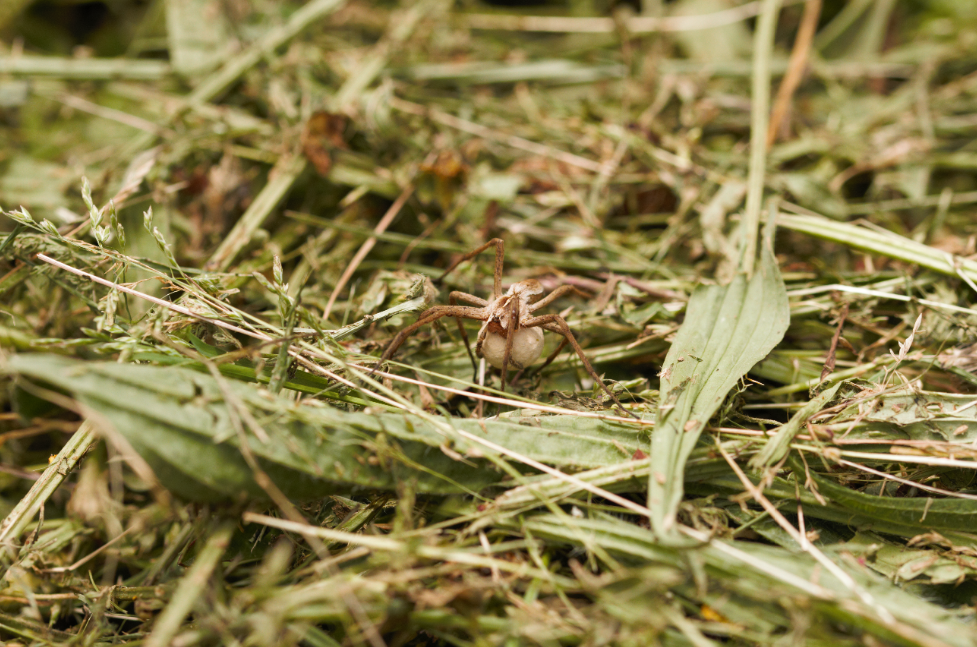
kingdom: Animalia
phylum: Arthropoda
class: Arachnida
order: Araneae
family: Pisauridae
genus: Pisaura
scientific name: Pisaura mirabilis
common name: Tent spider
